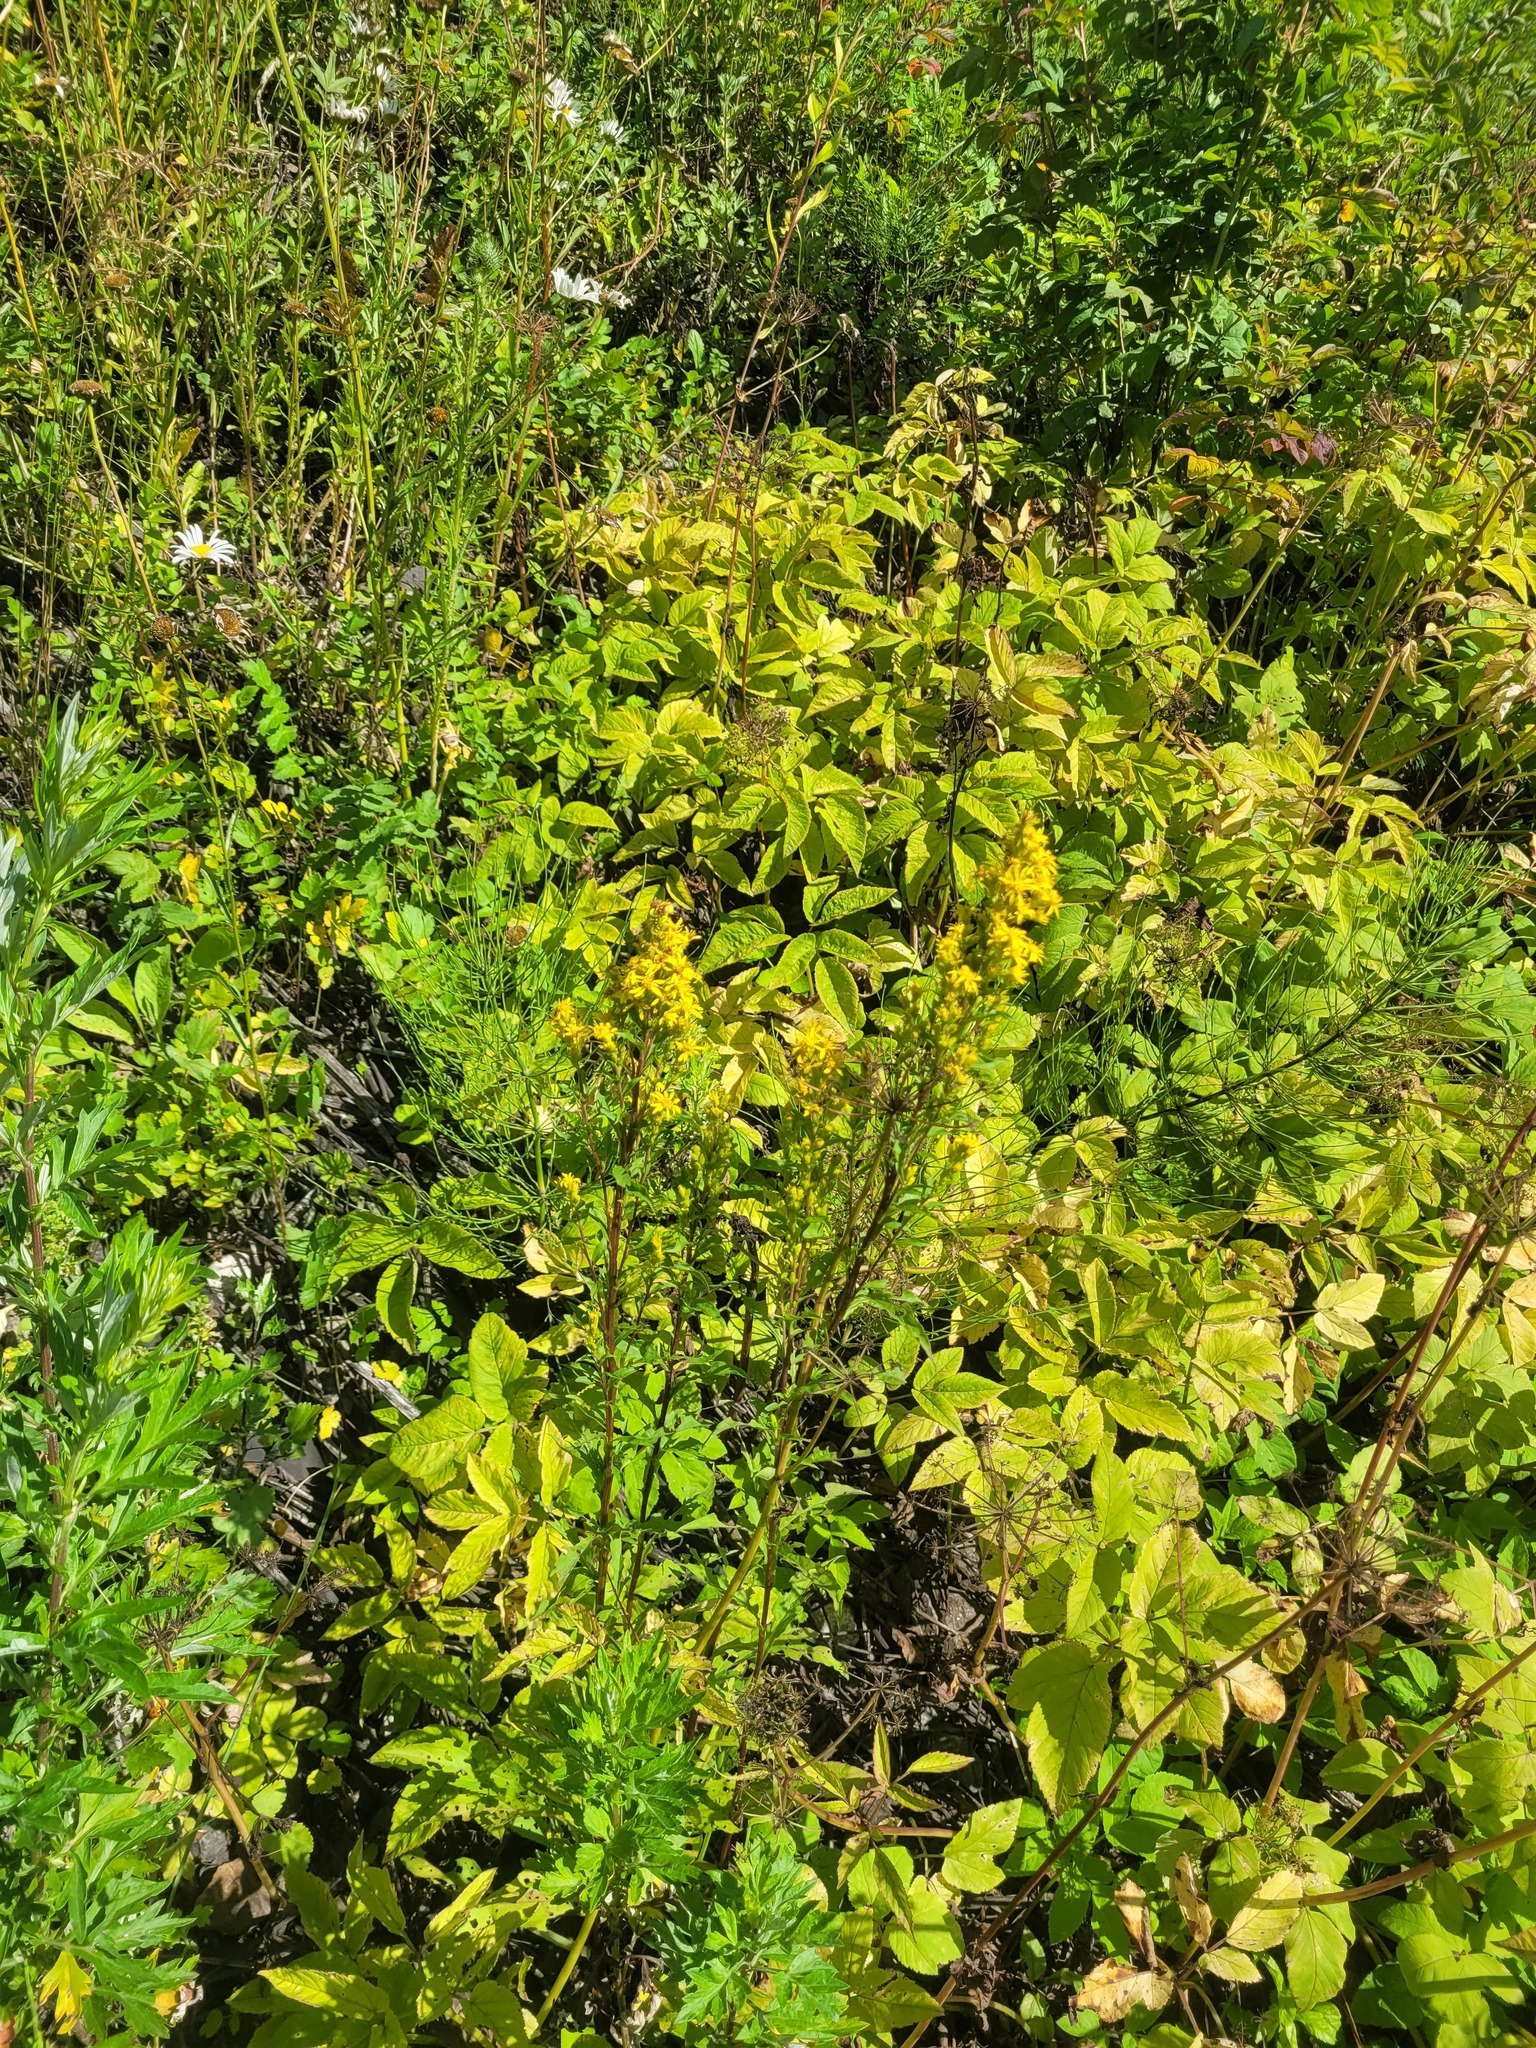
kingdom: Plantae
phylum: Tracheophyta
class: Magnoliopsida
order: Asterales
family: Asteraceae
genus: Solidago
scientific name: Solidago virgaurea
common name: Goldenrod
